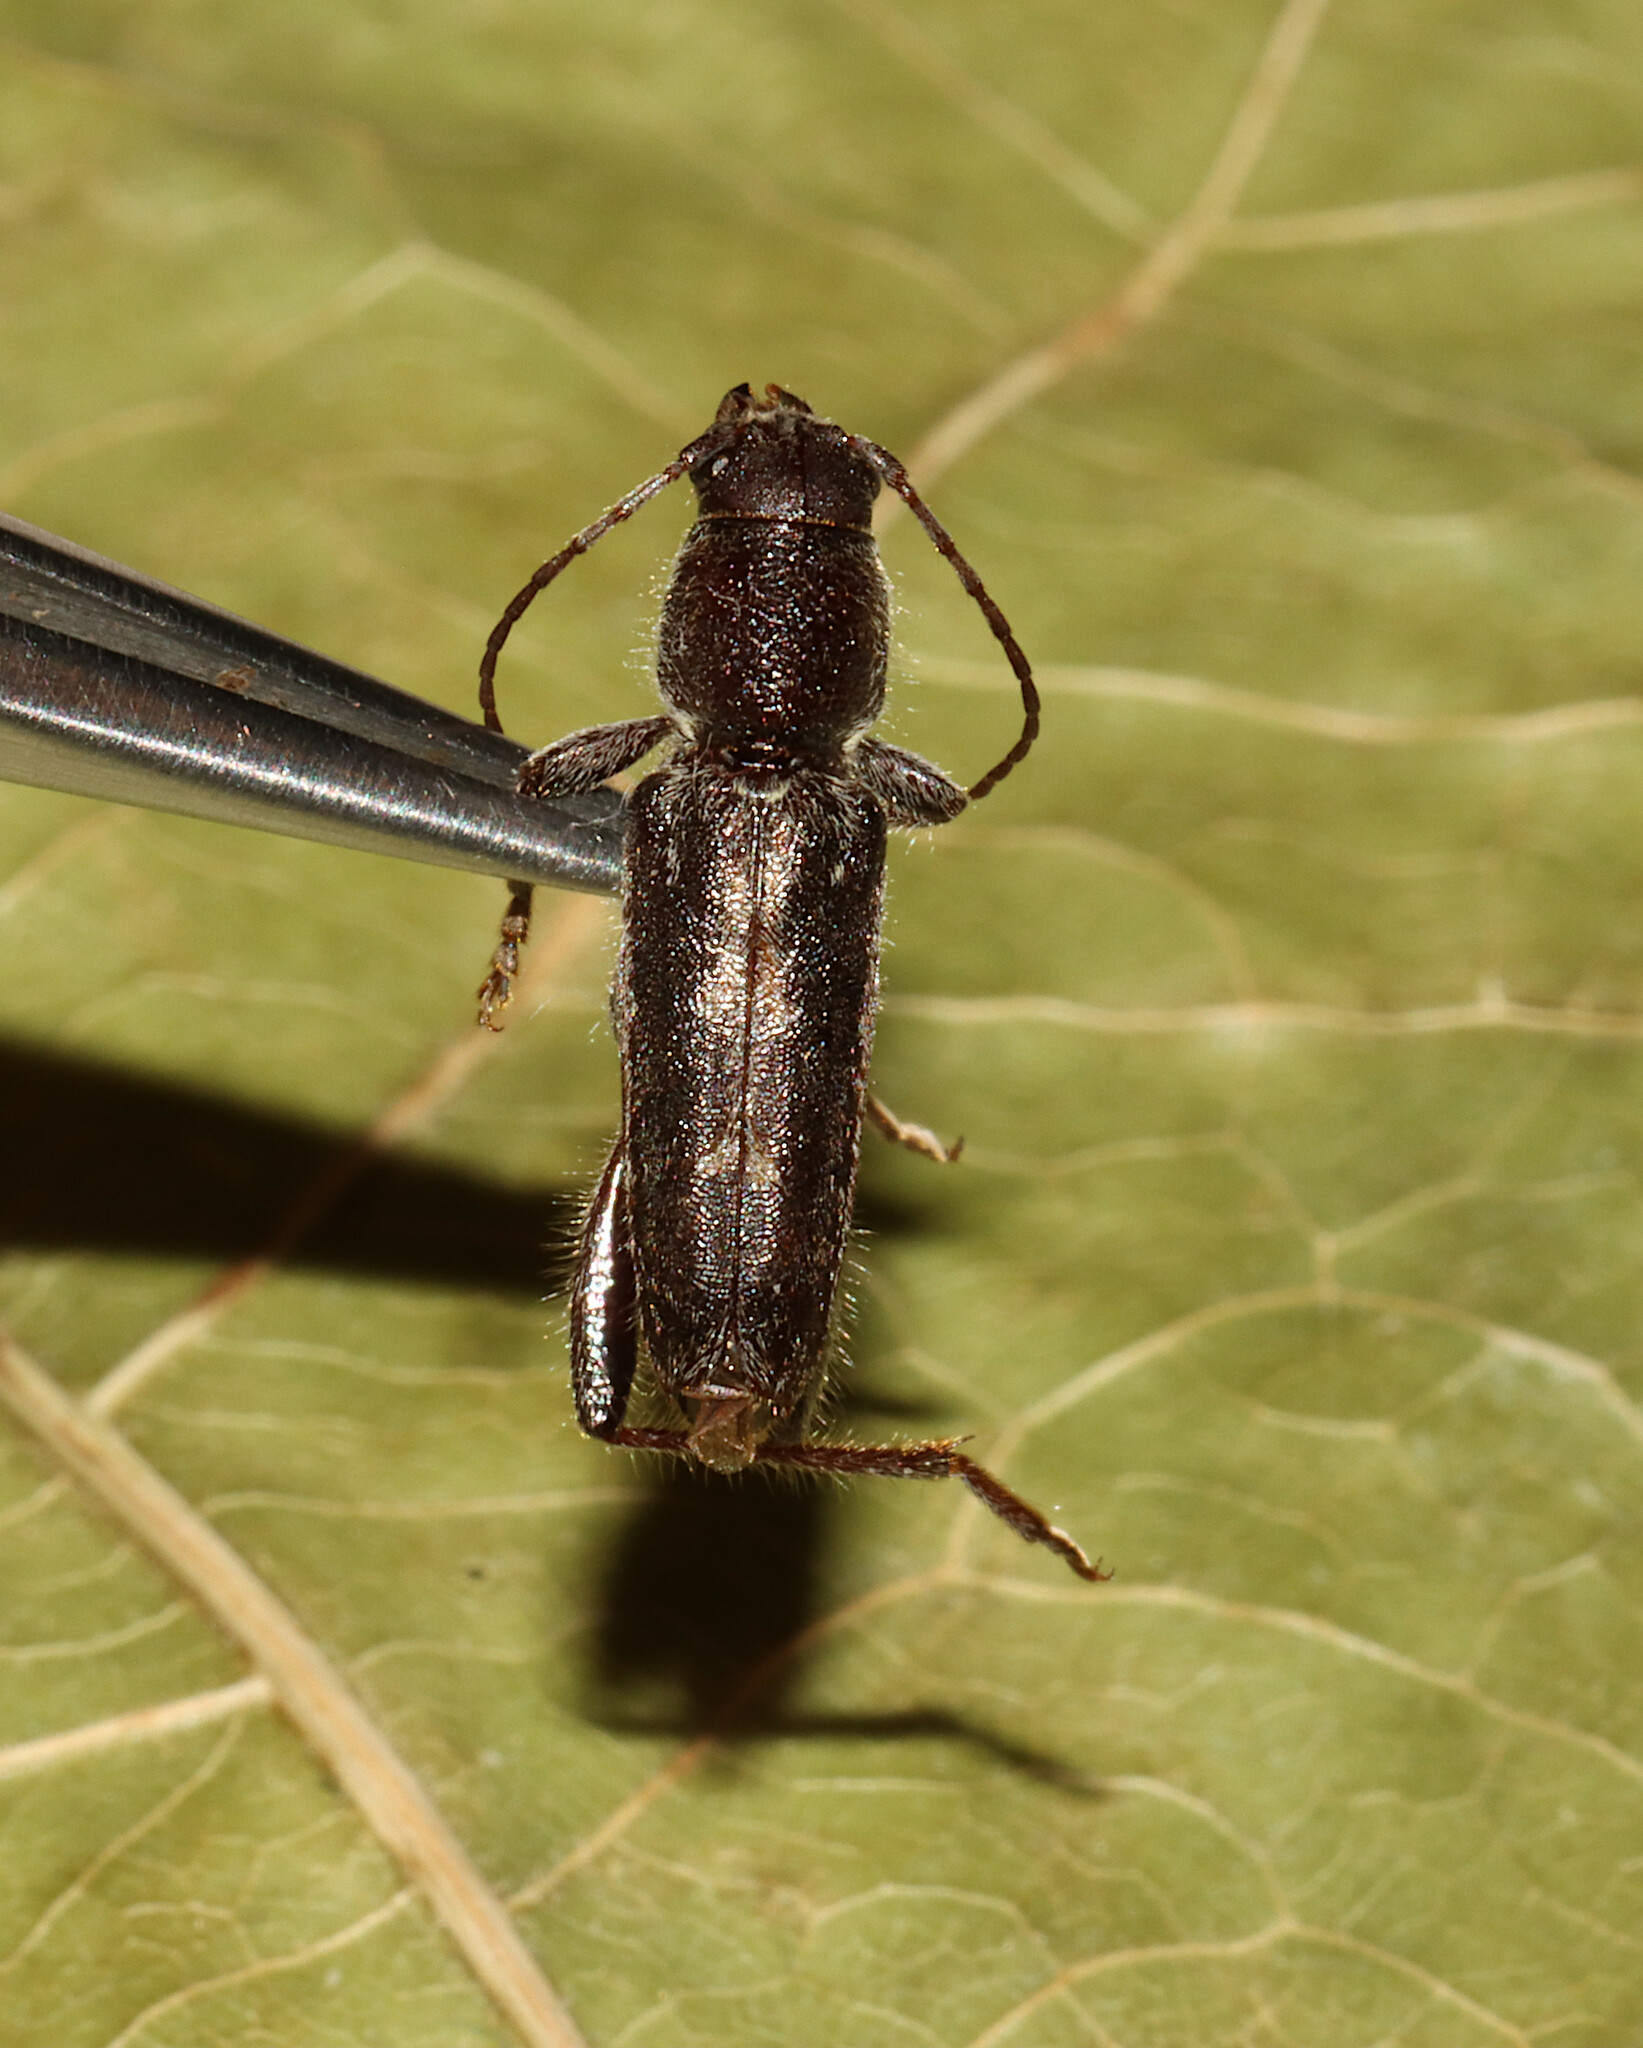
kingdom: Animalia
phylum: Arthropoda
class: Insecta
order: Coleoptera
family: Cerambycidae
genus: Xylotrechus
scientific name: Xylotrechus sagittatus
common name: Arrowhead borer
